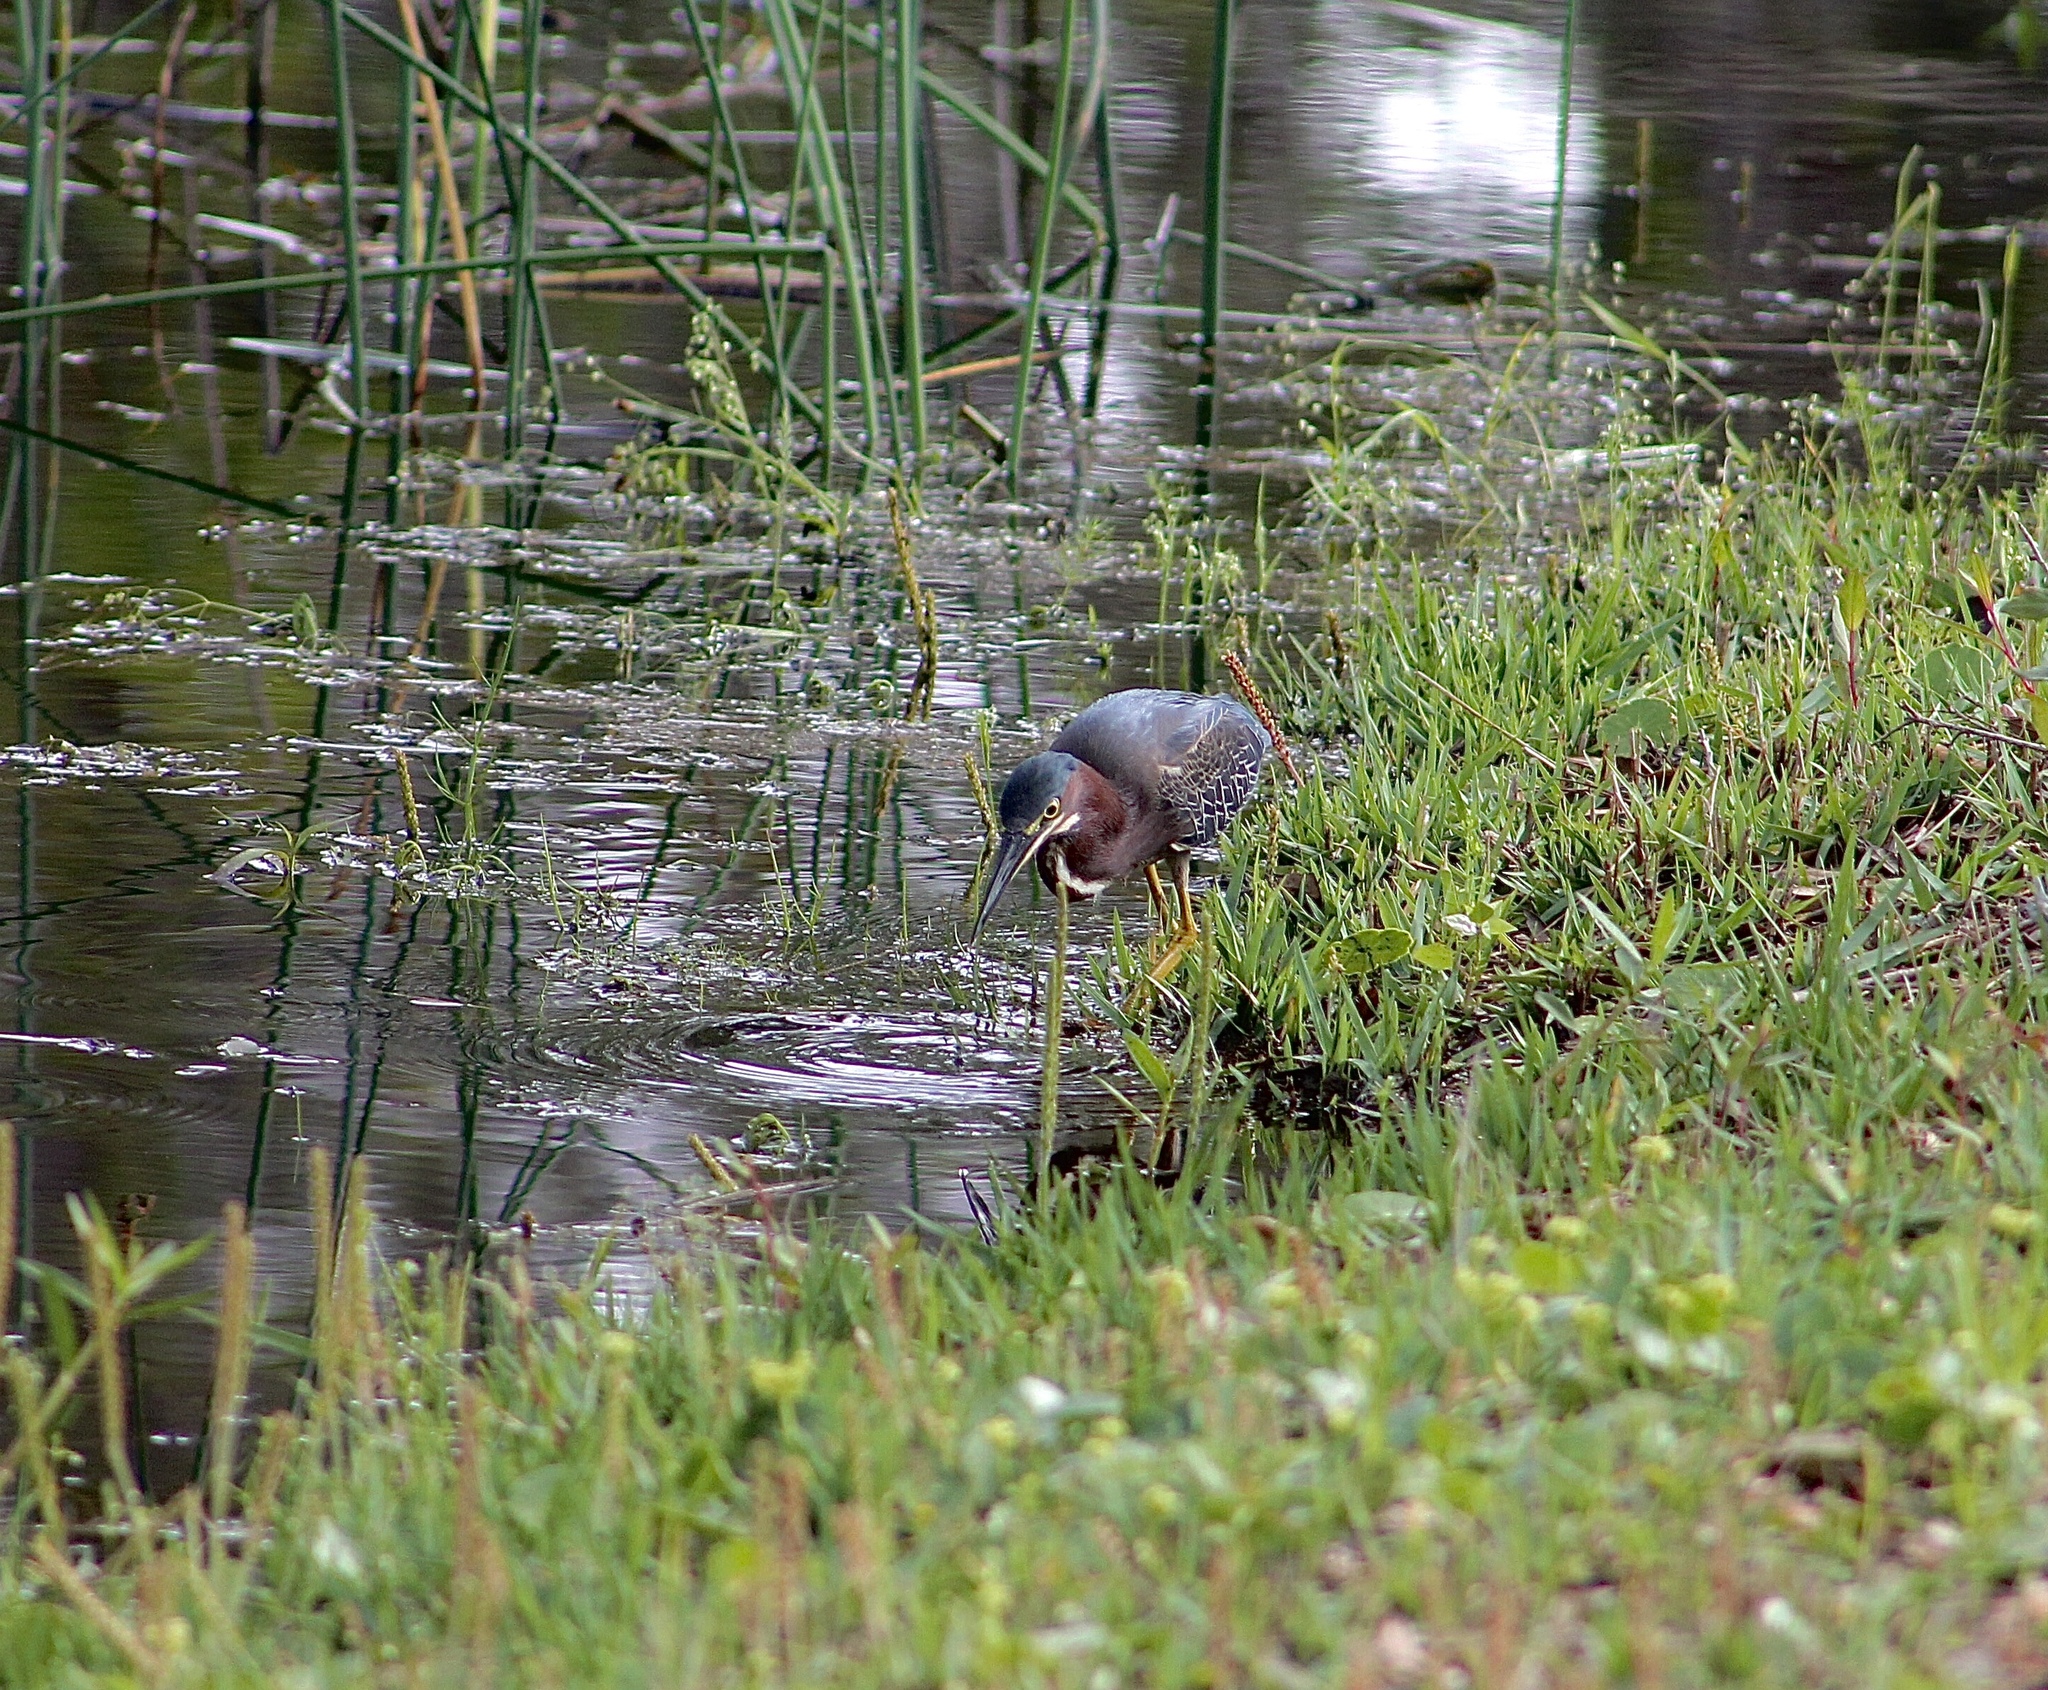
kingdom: Animalia
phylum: Chordata
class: Aves
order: Pelecaniformes
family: Ardeidae
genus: Butorides
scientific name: Butorides virescens
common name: Green heron
